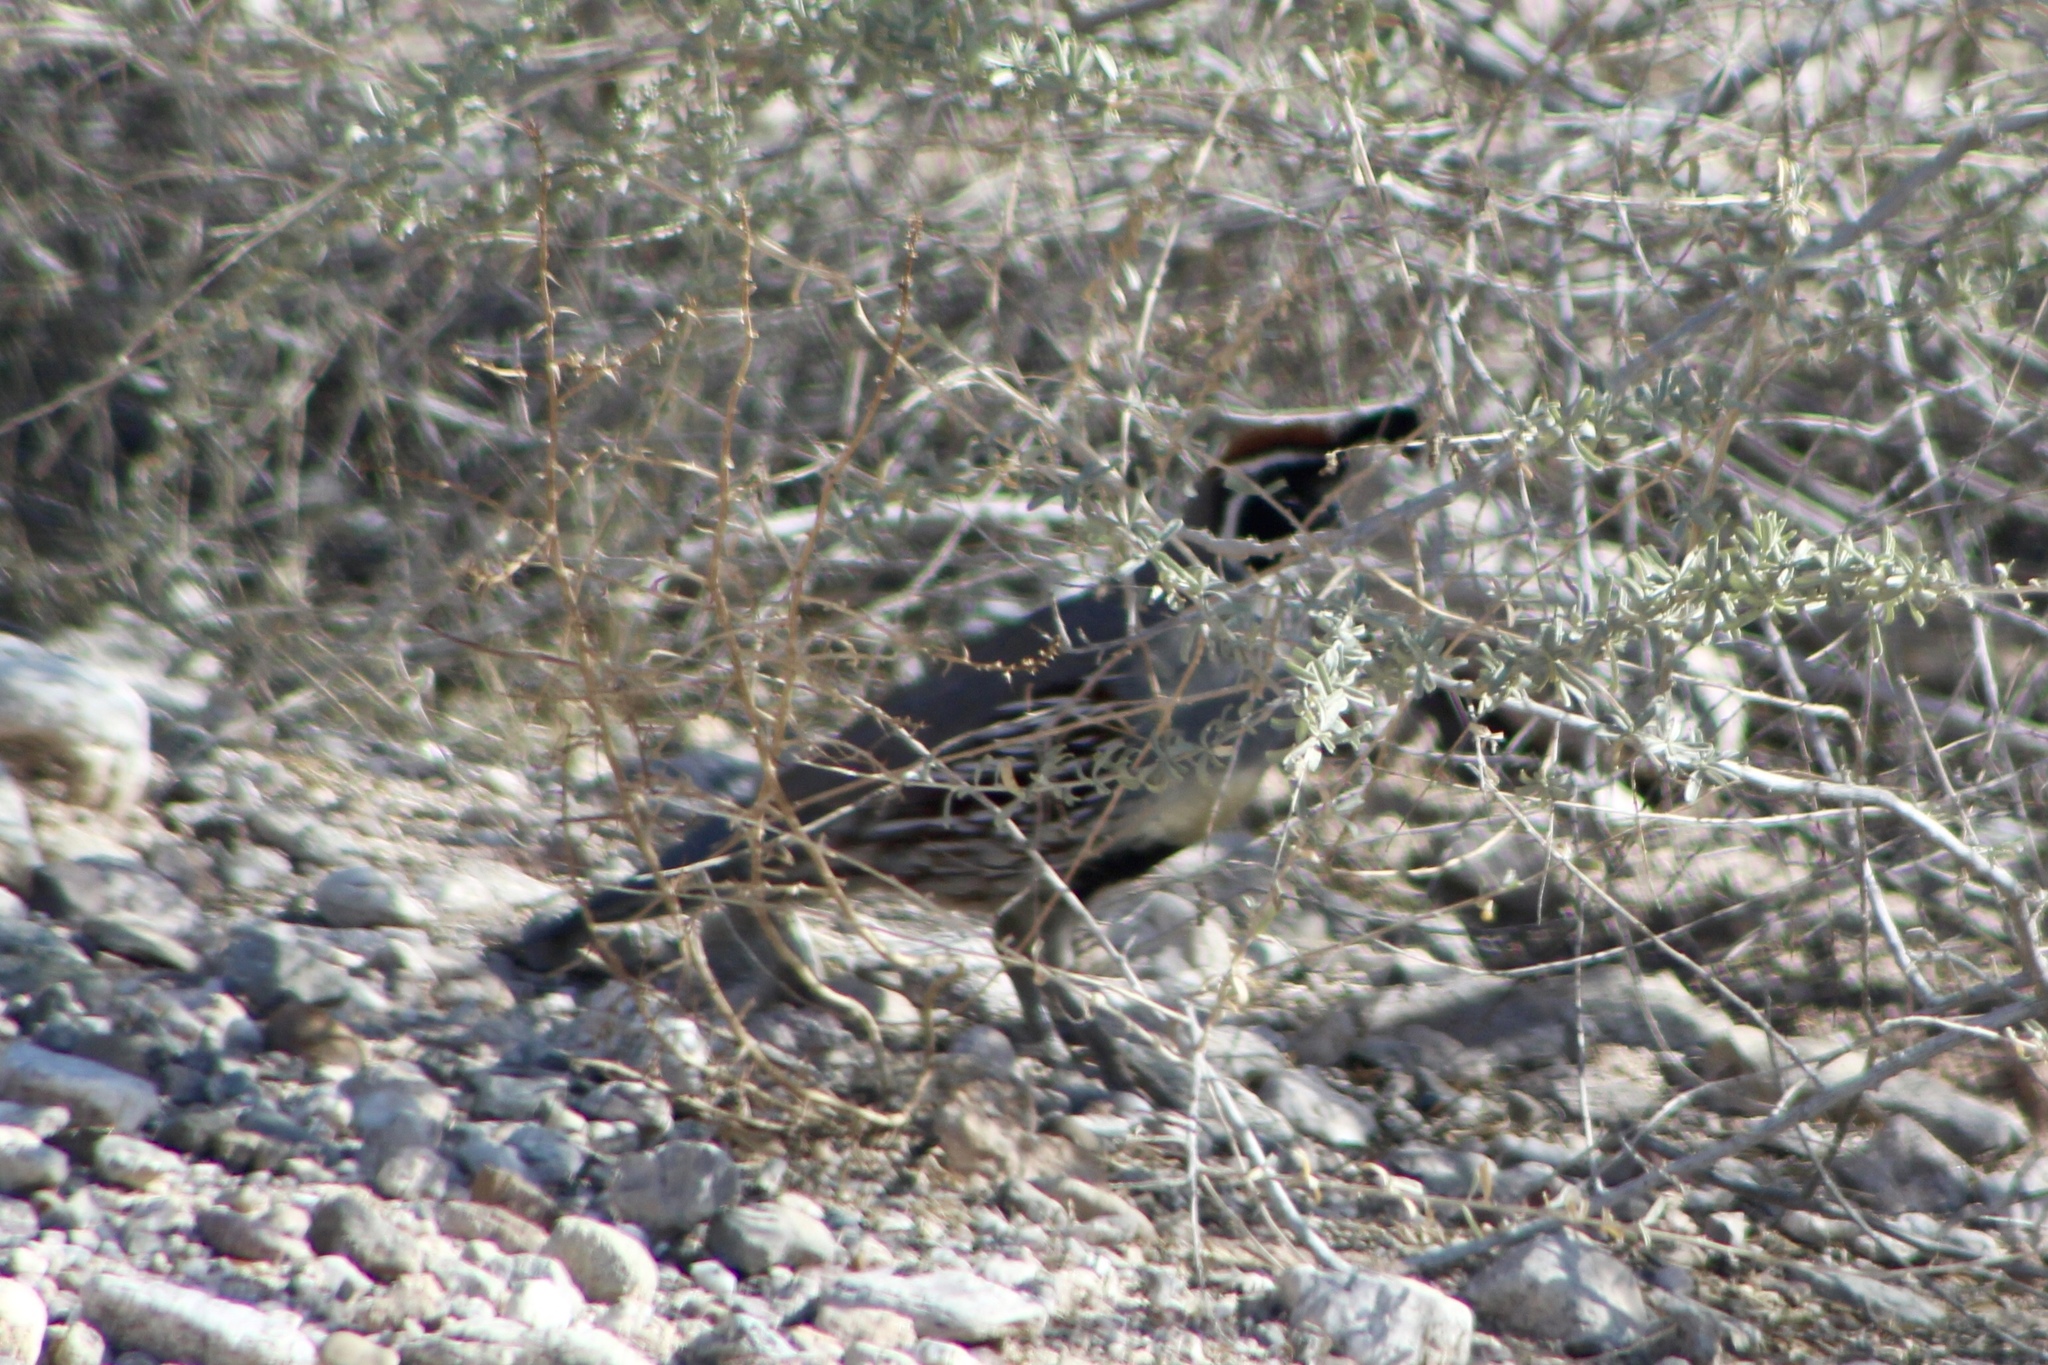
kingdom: Animalia
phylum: Chordata
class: Aves
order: Galliformes
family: Odontophoridae
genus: Callipepla
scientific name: Callipepla gambelii
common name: Gambel's quail
